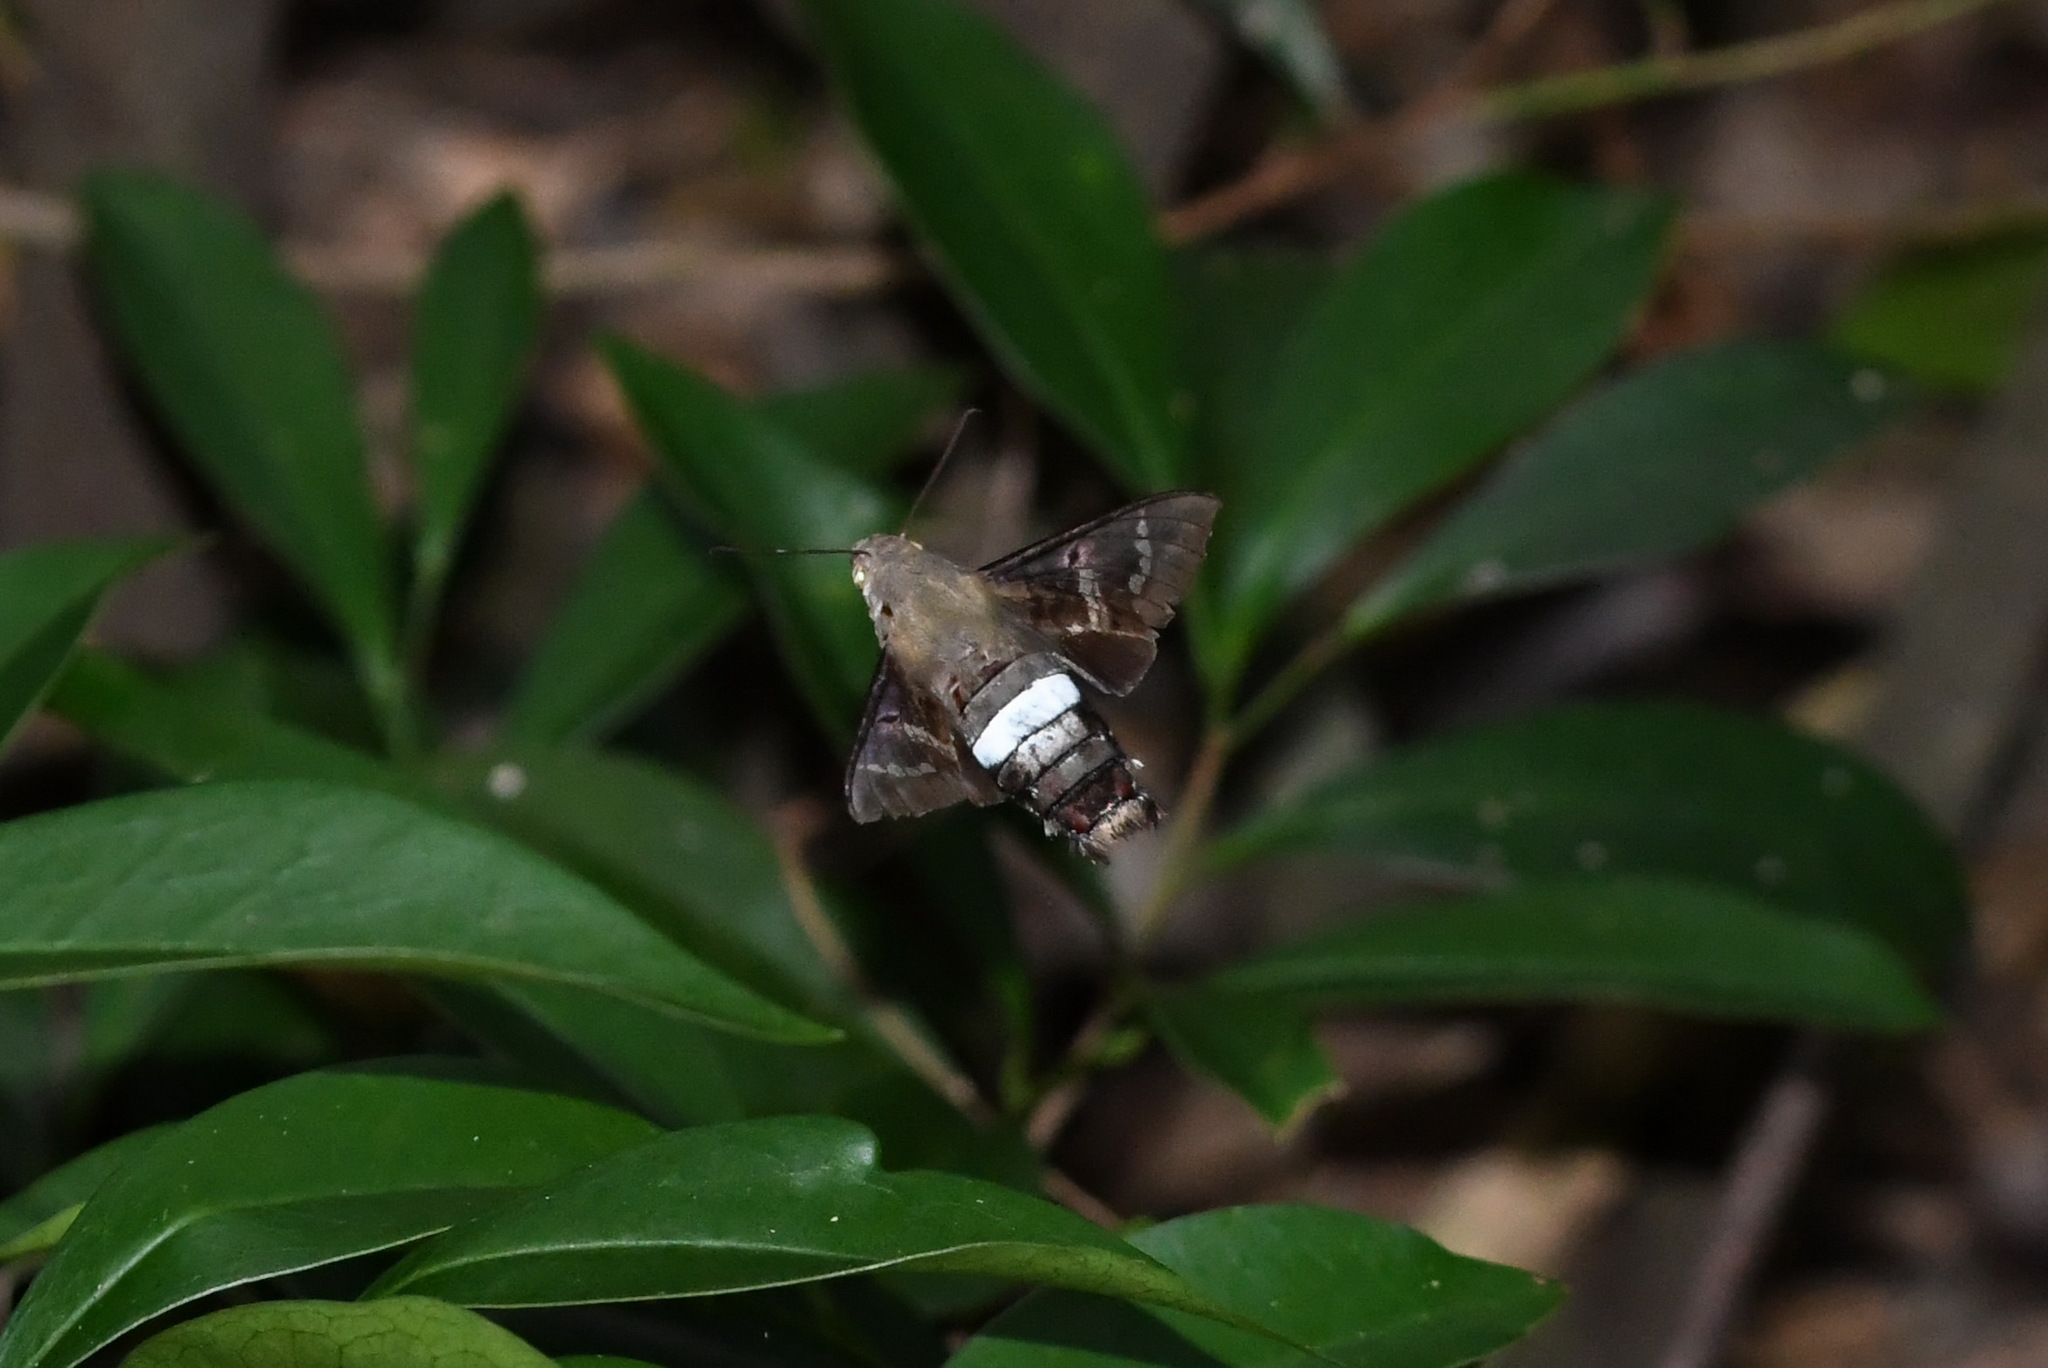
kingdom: Animalia
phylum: Arthropoda
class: Insecta
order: Lepidoptera
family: Sphingidae
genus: Aellopos
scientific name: Aellopos titan
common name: Titan sphinx
